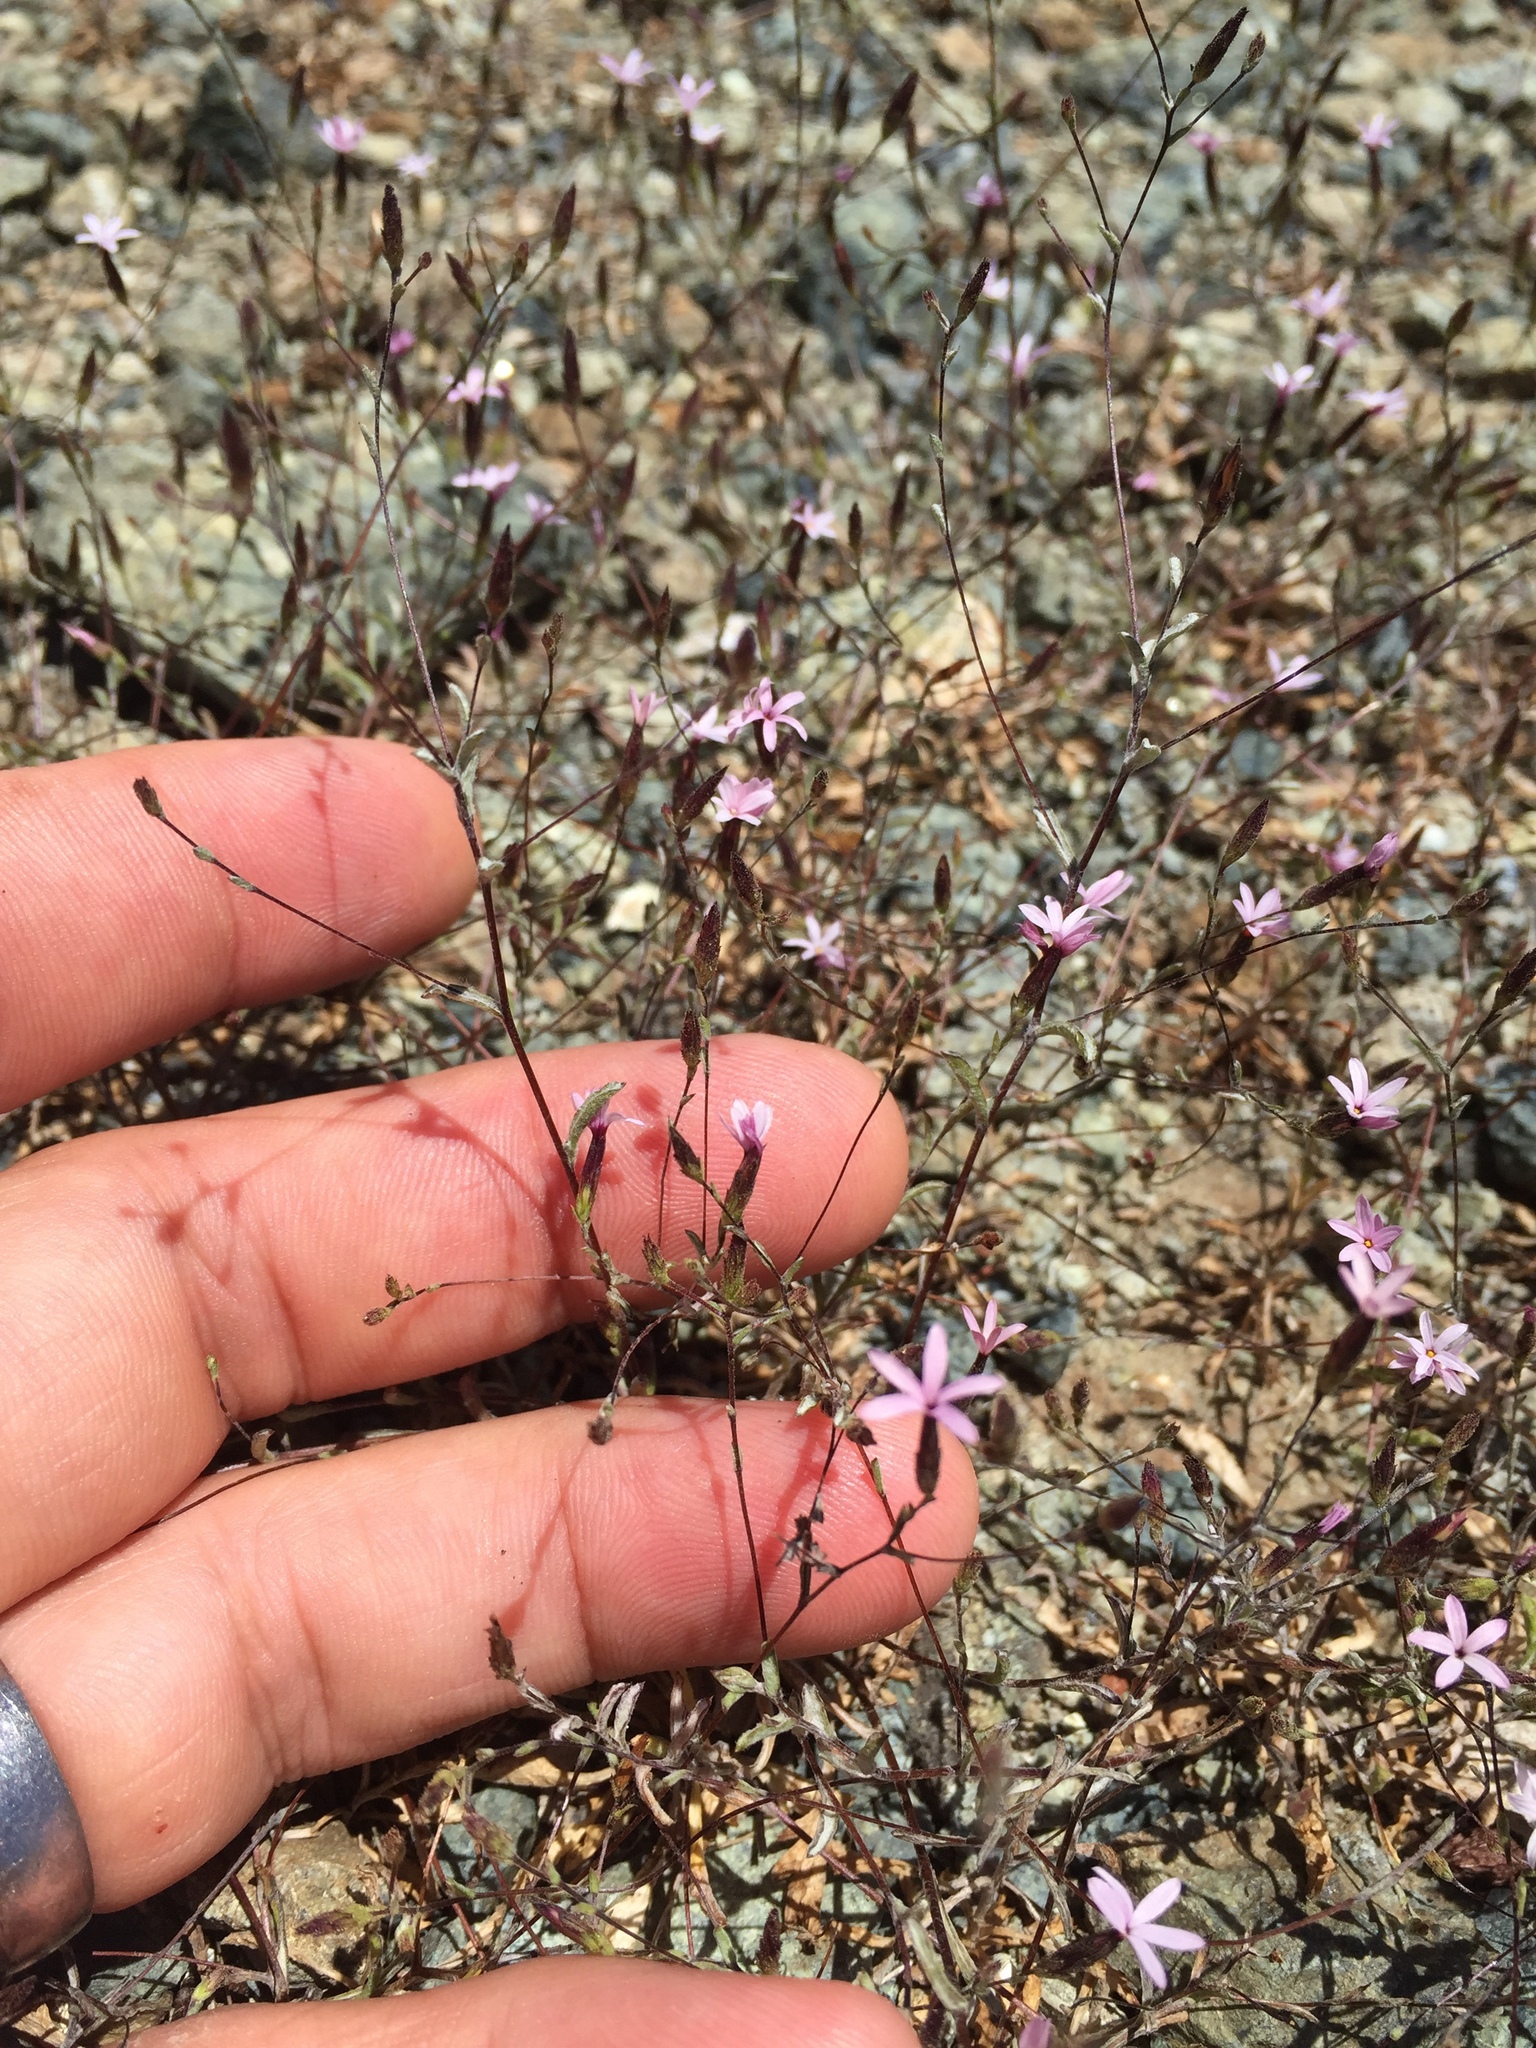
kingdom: Plantae
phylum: Tracheophyta
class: Magnoliopsida
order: Asterales
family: Asteraceae
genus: Lessingia
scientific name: Lessingia micradenia
